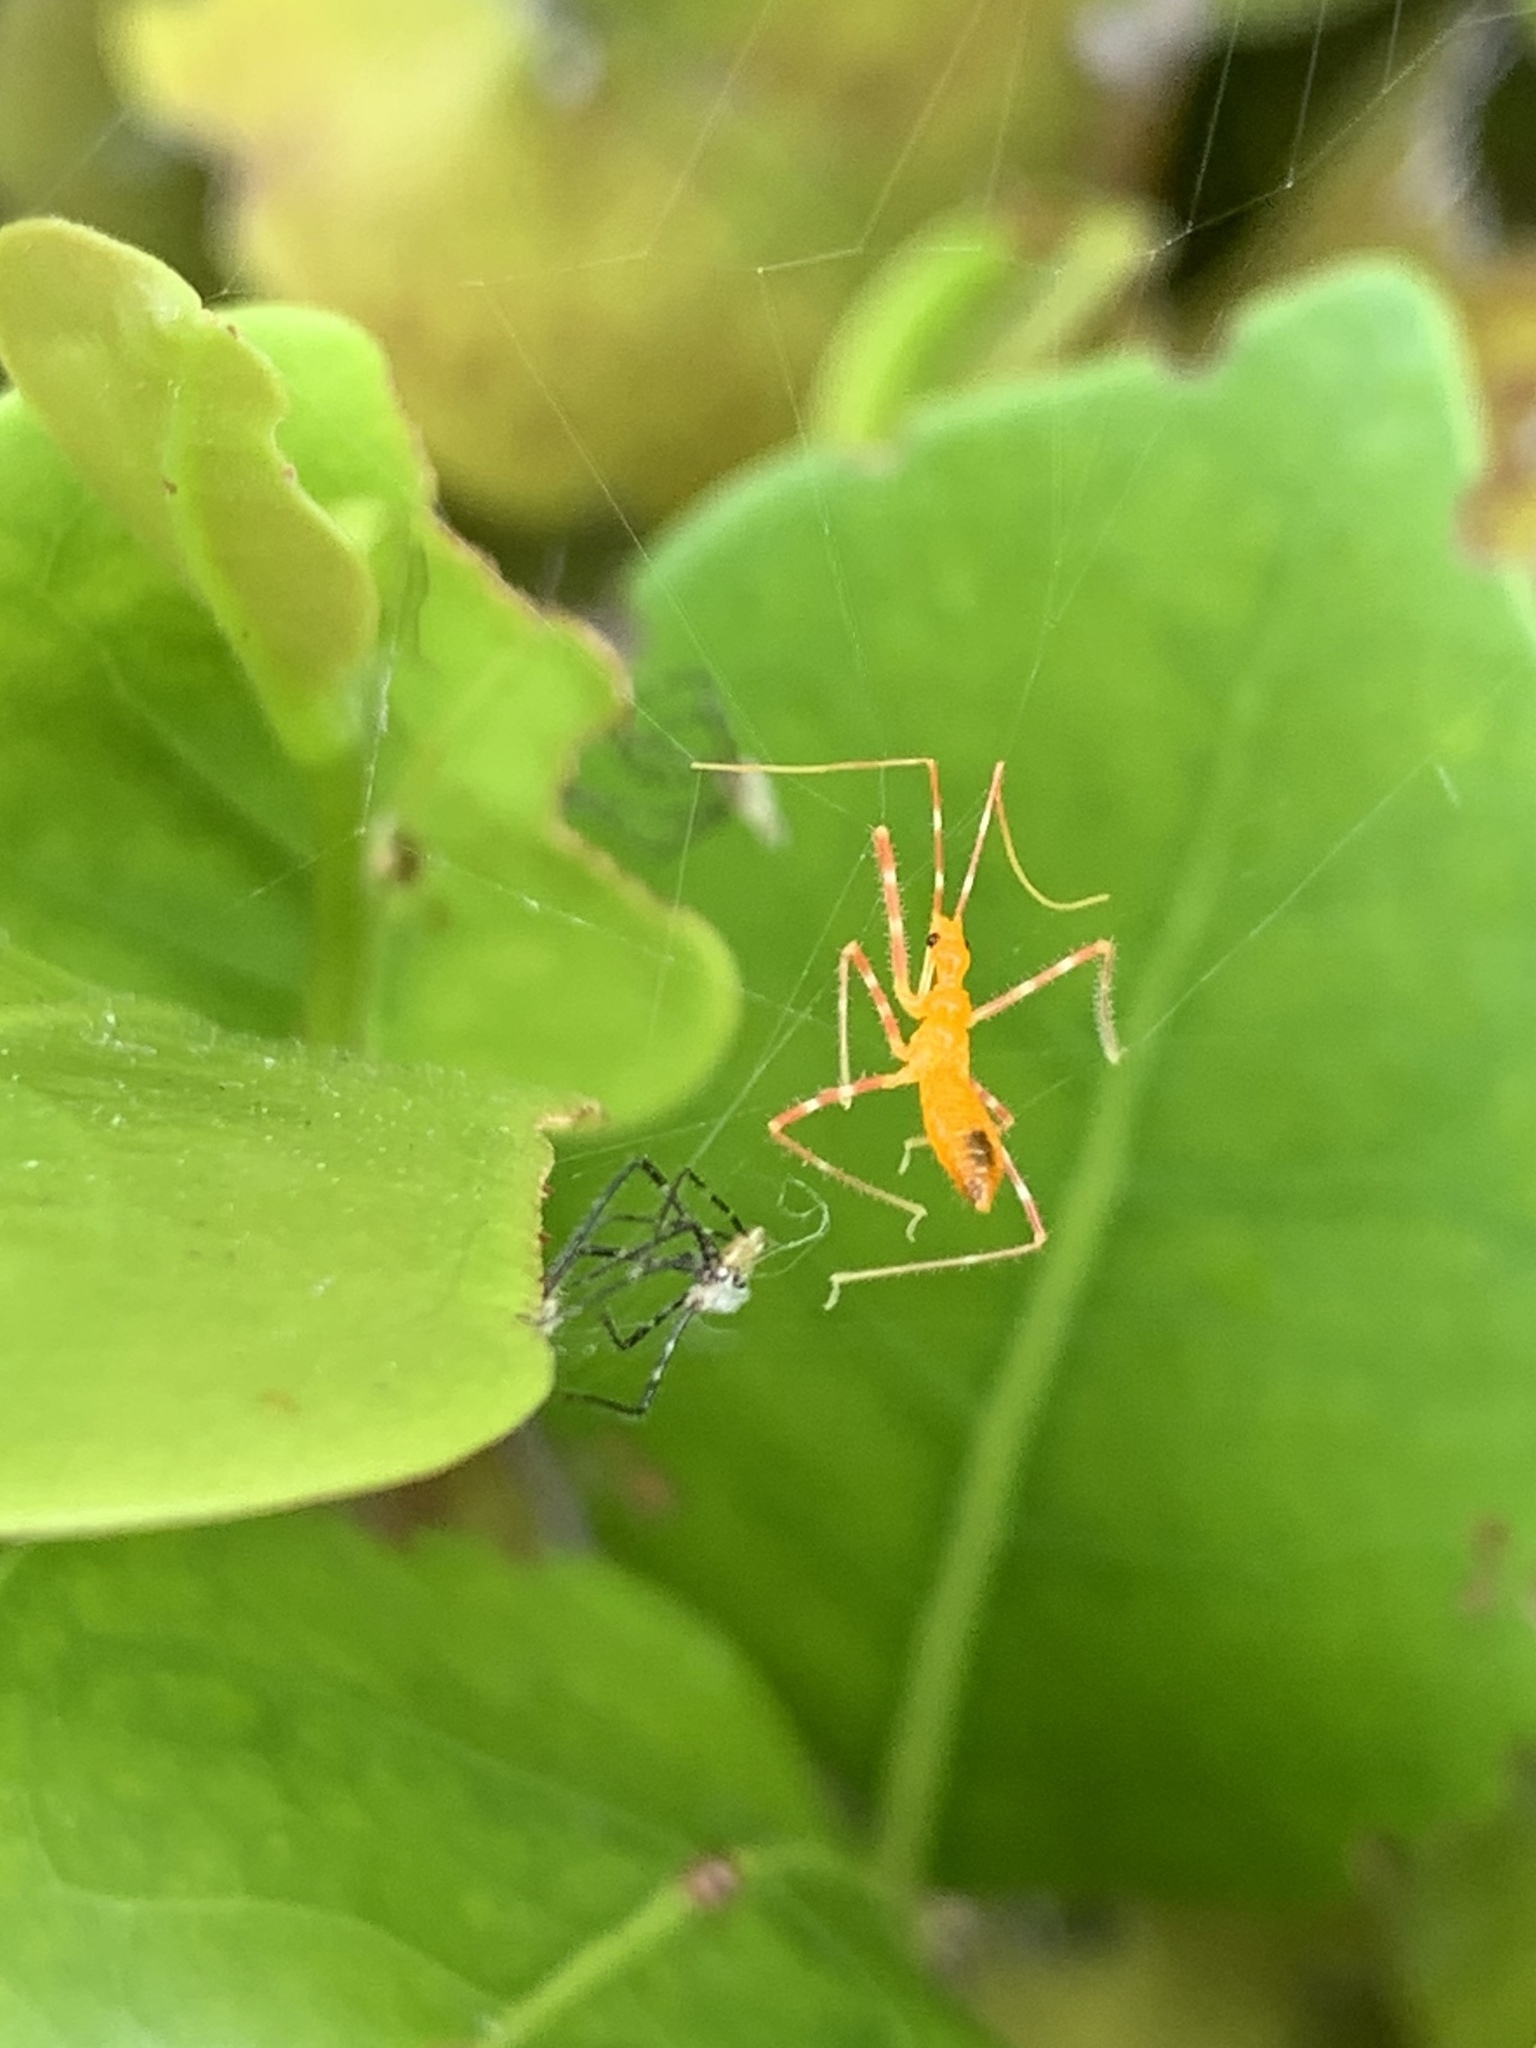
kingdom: Animalia
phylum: Arthropoda
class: Insecta
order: Hemiptera
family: Reduviidae
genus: Zelus
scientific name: Zelus longipes
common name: Milkweed assassin bug
